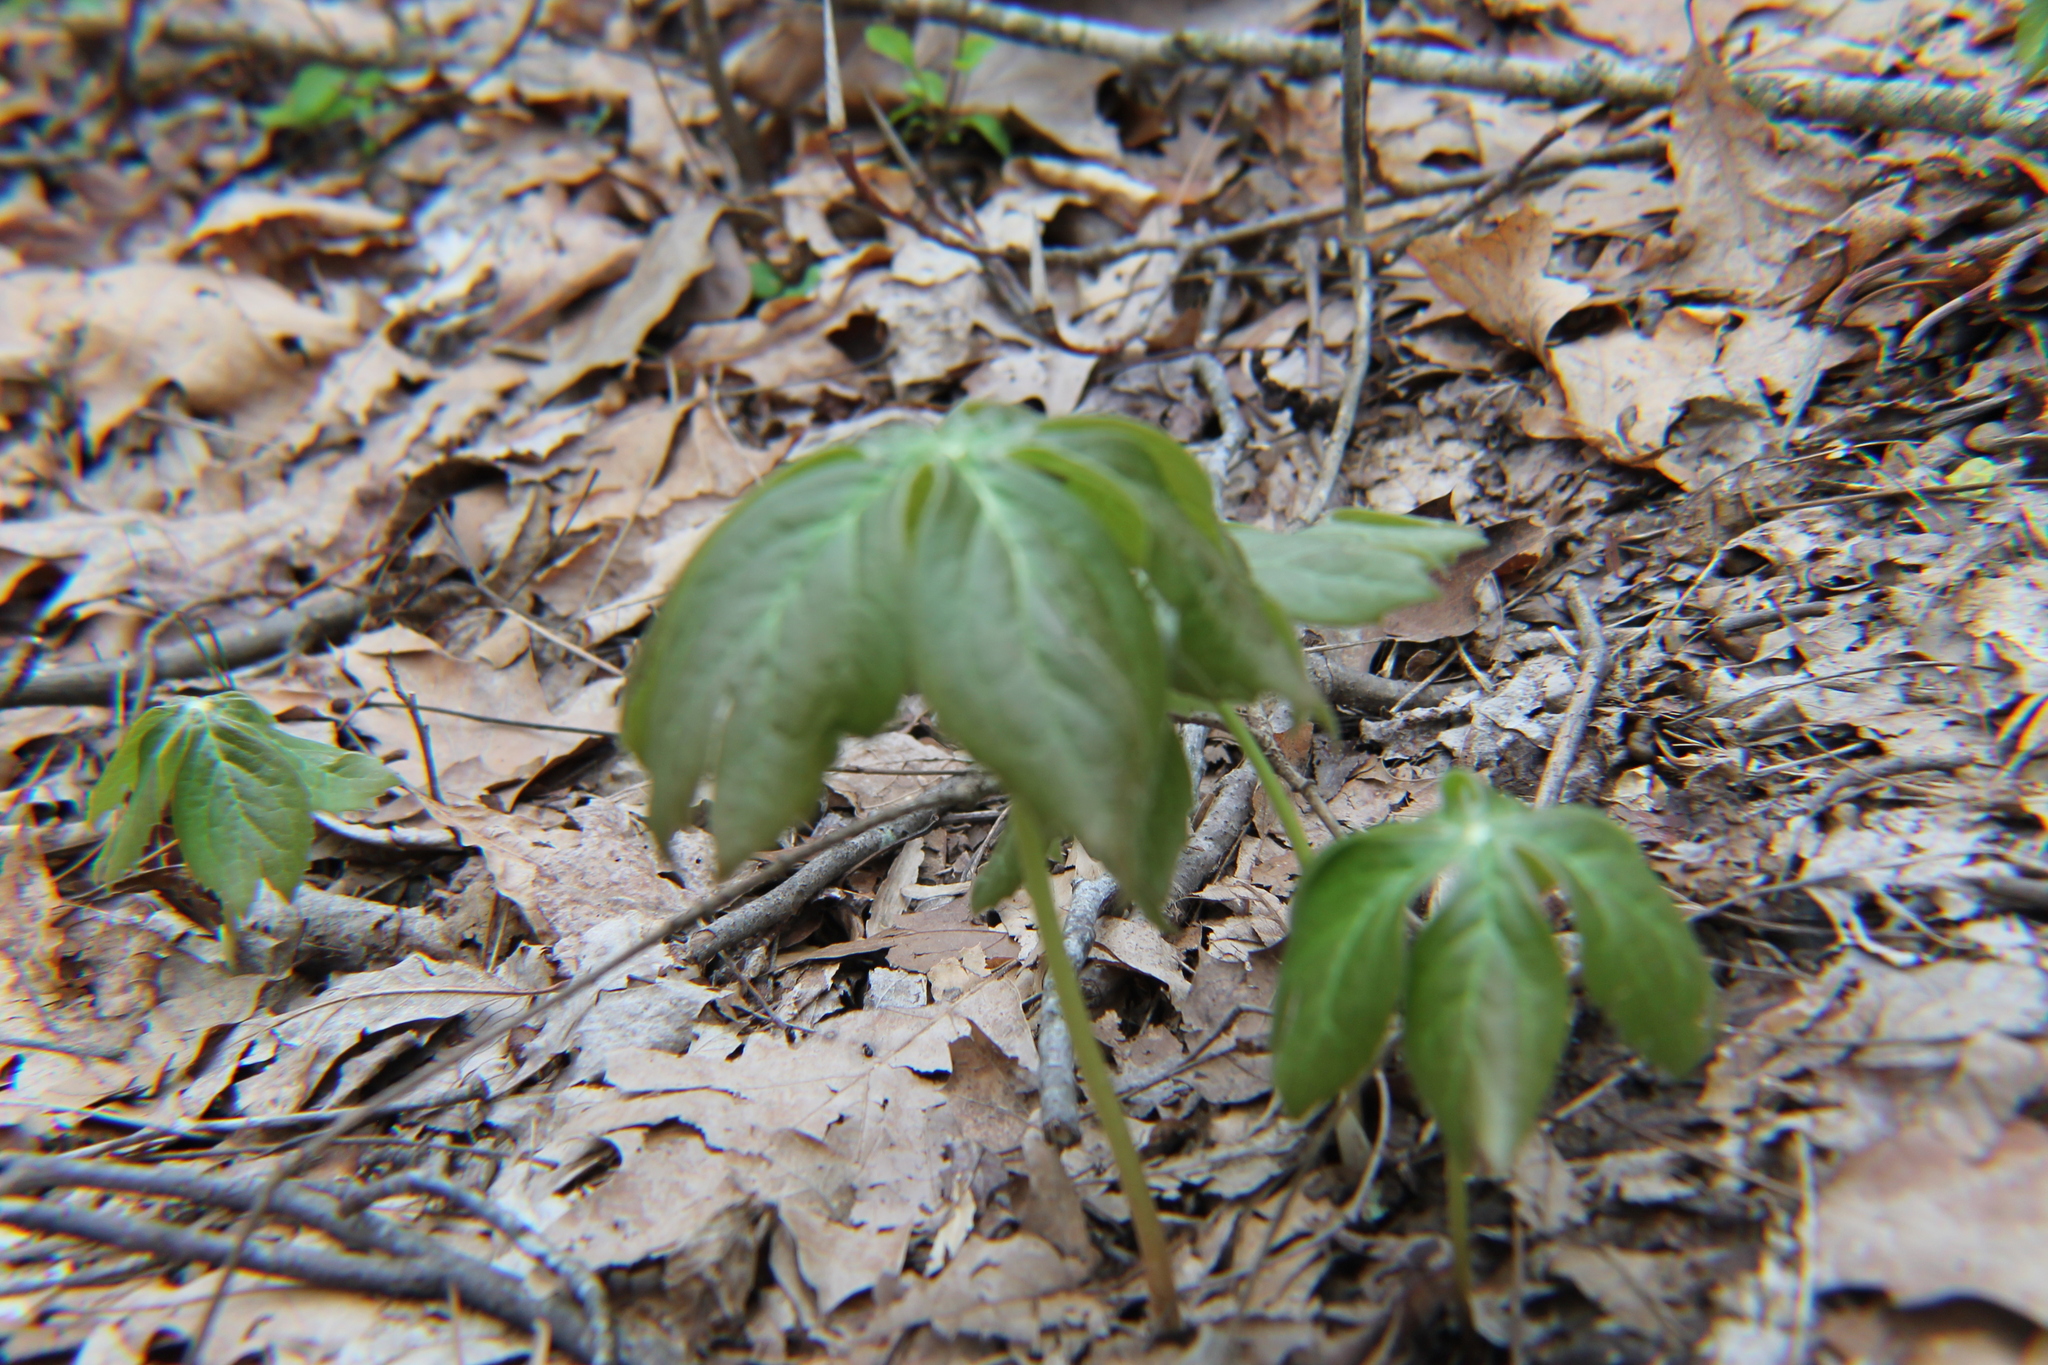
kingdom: Plantae
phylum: Tracheophyta
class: Magnoliopsida
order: Ranunculales
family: Berberidaceae
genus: Podophyllum
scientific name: Podophyllum peltatum
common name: Wild mandrake
